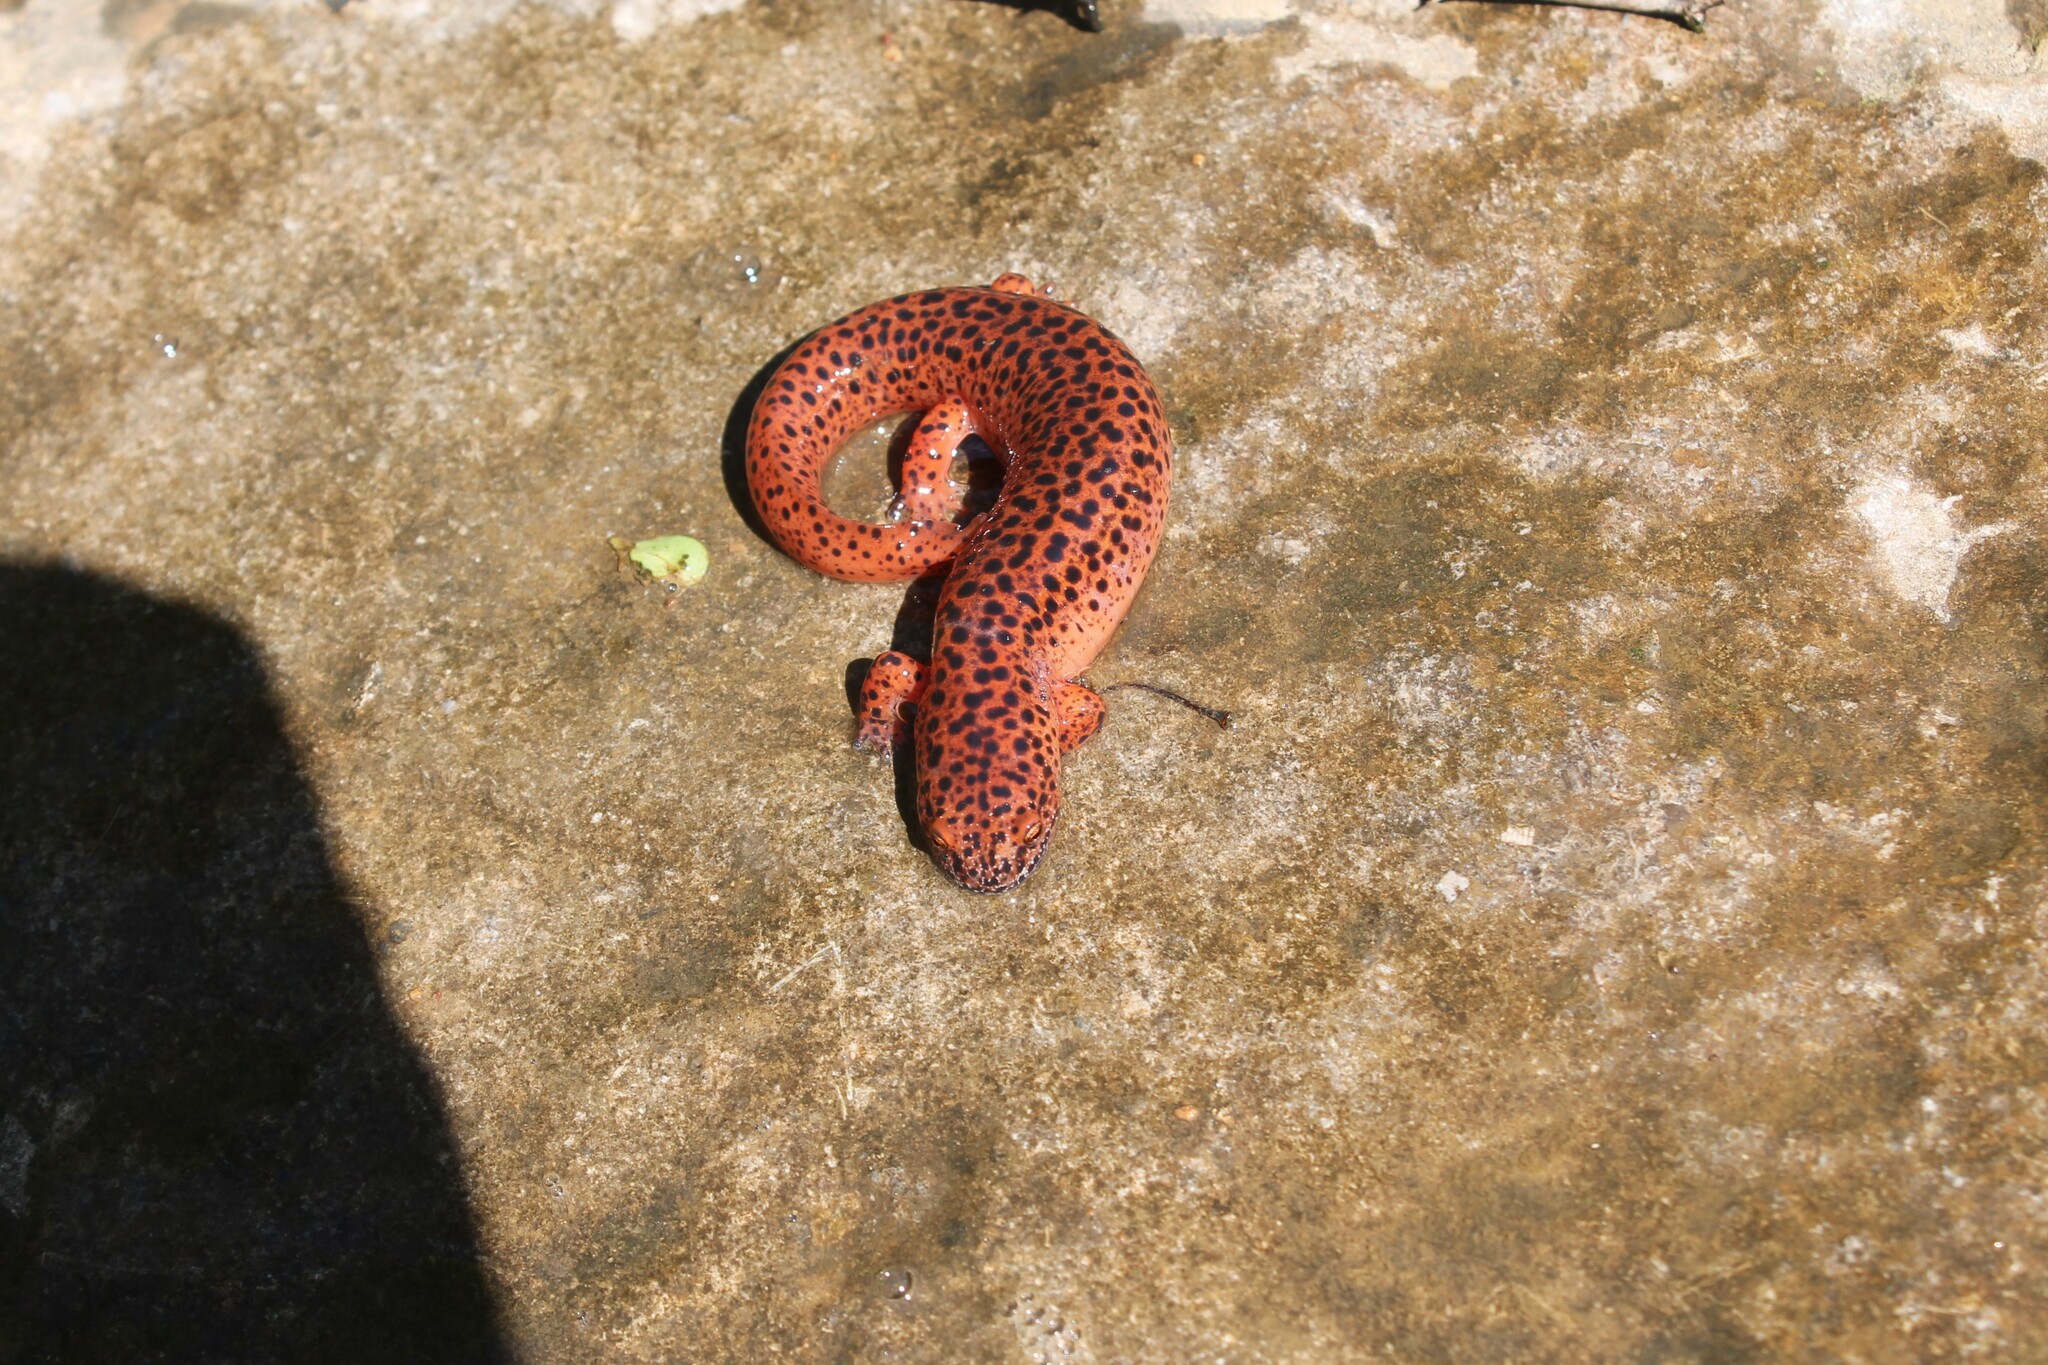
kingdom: Animalia
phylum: Chordata
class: Amphibia
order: Caudata
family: Plethodontidae
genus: Pseudotriton
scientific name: Pseudotriton ruber
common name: Red salamander
